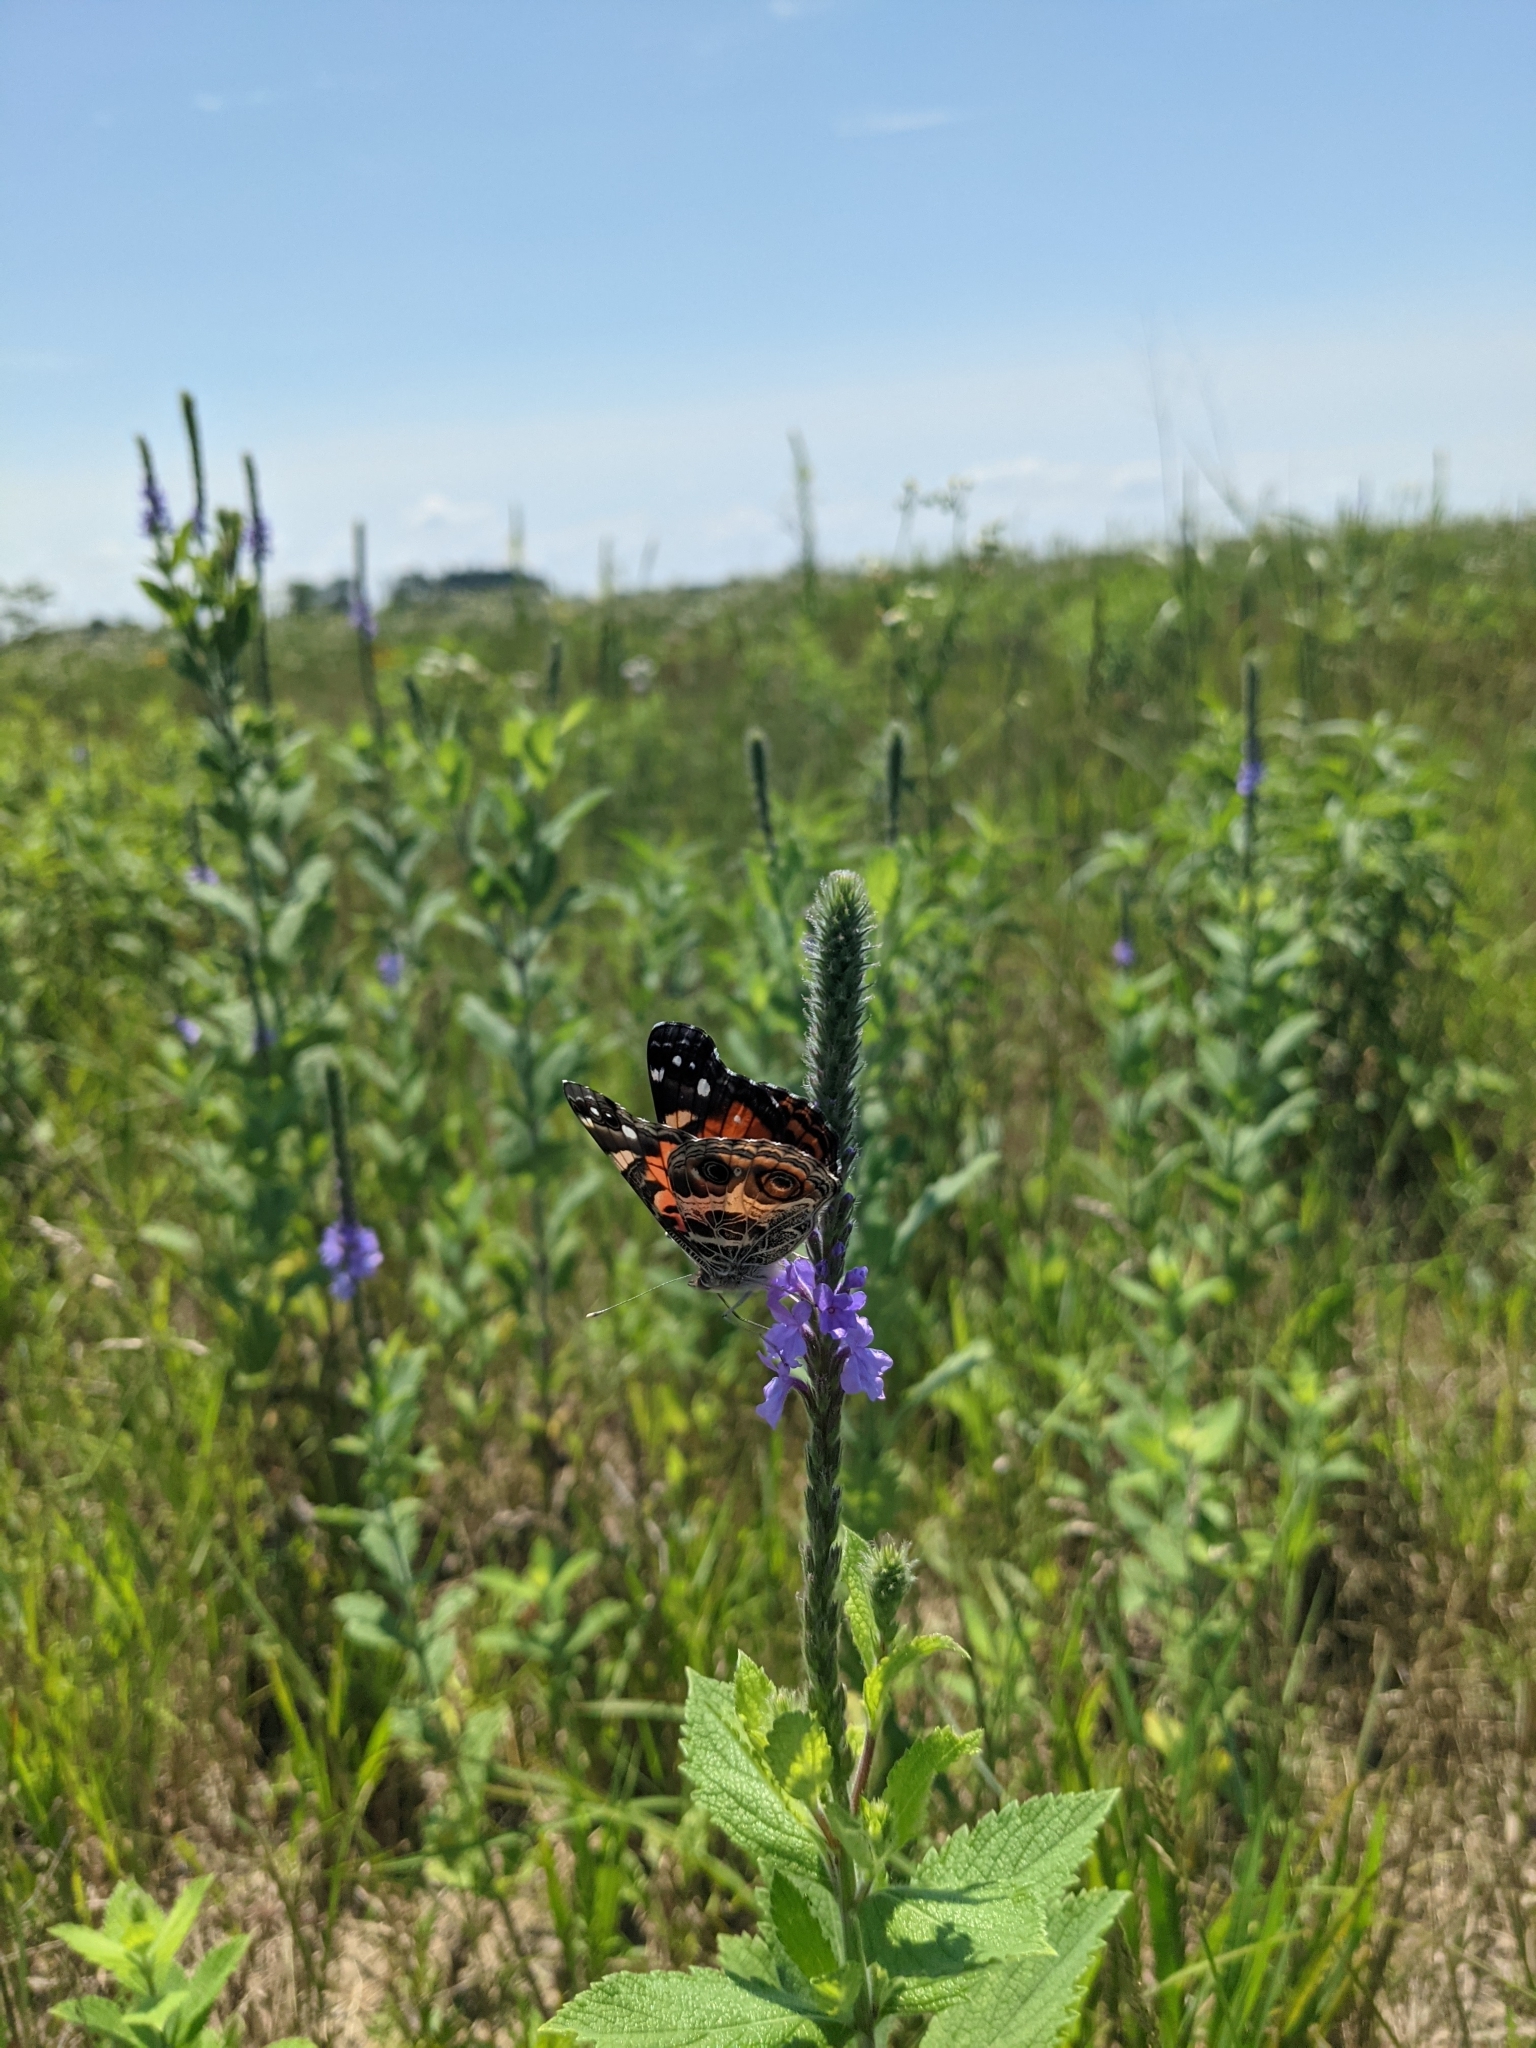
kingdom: Animalia
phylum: Arthropoda
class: Insecta
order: Lepidoptera
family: Nymphalidae
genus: Vanessa
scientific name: Vanessa virginiensis
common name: American lady
